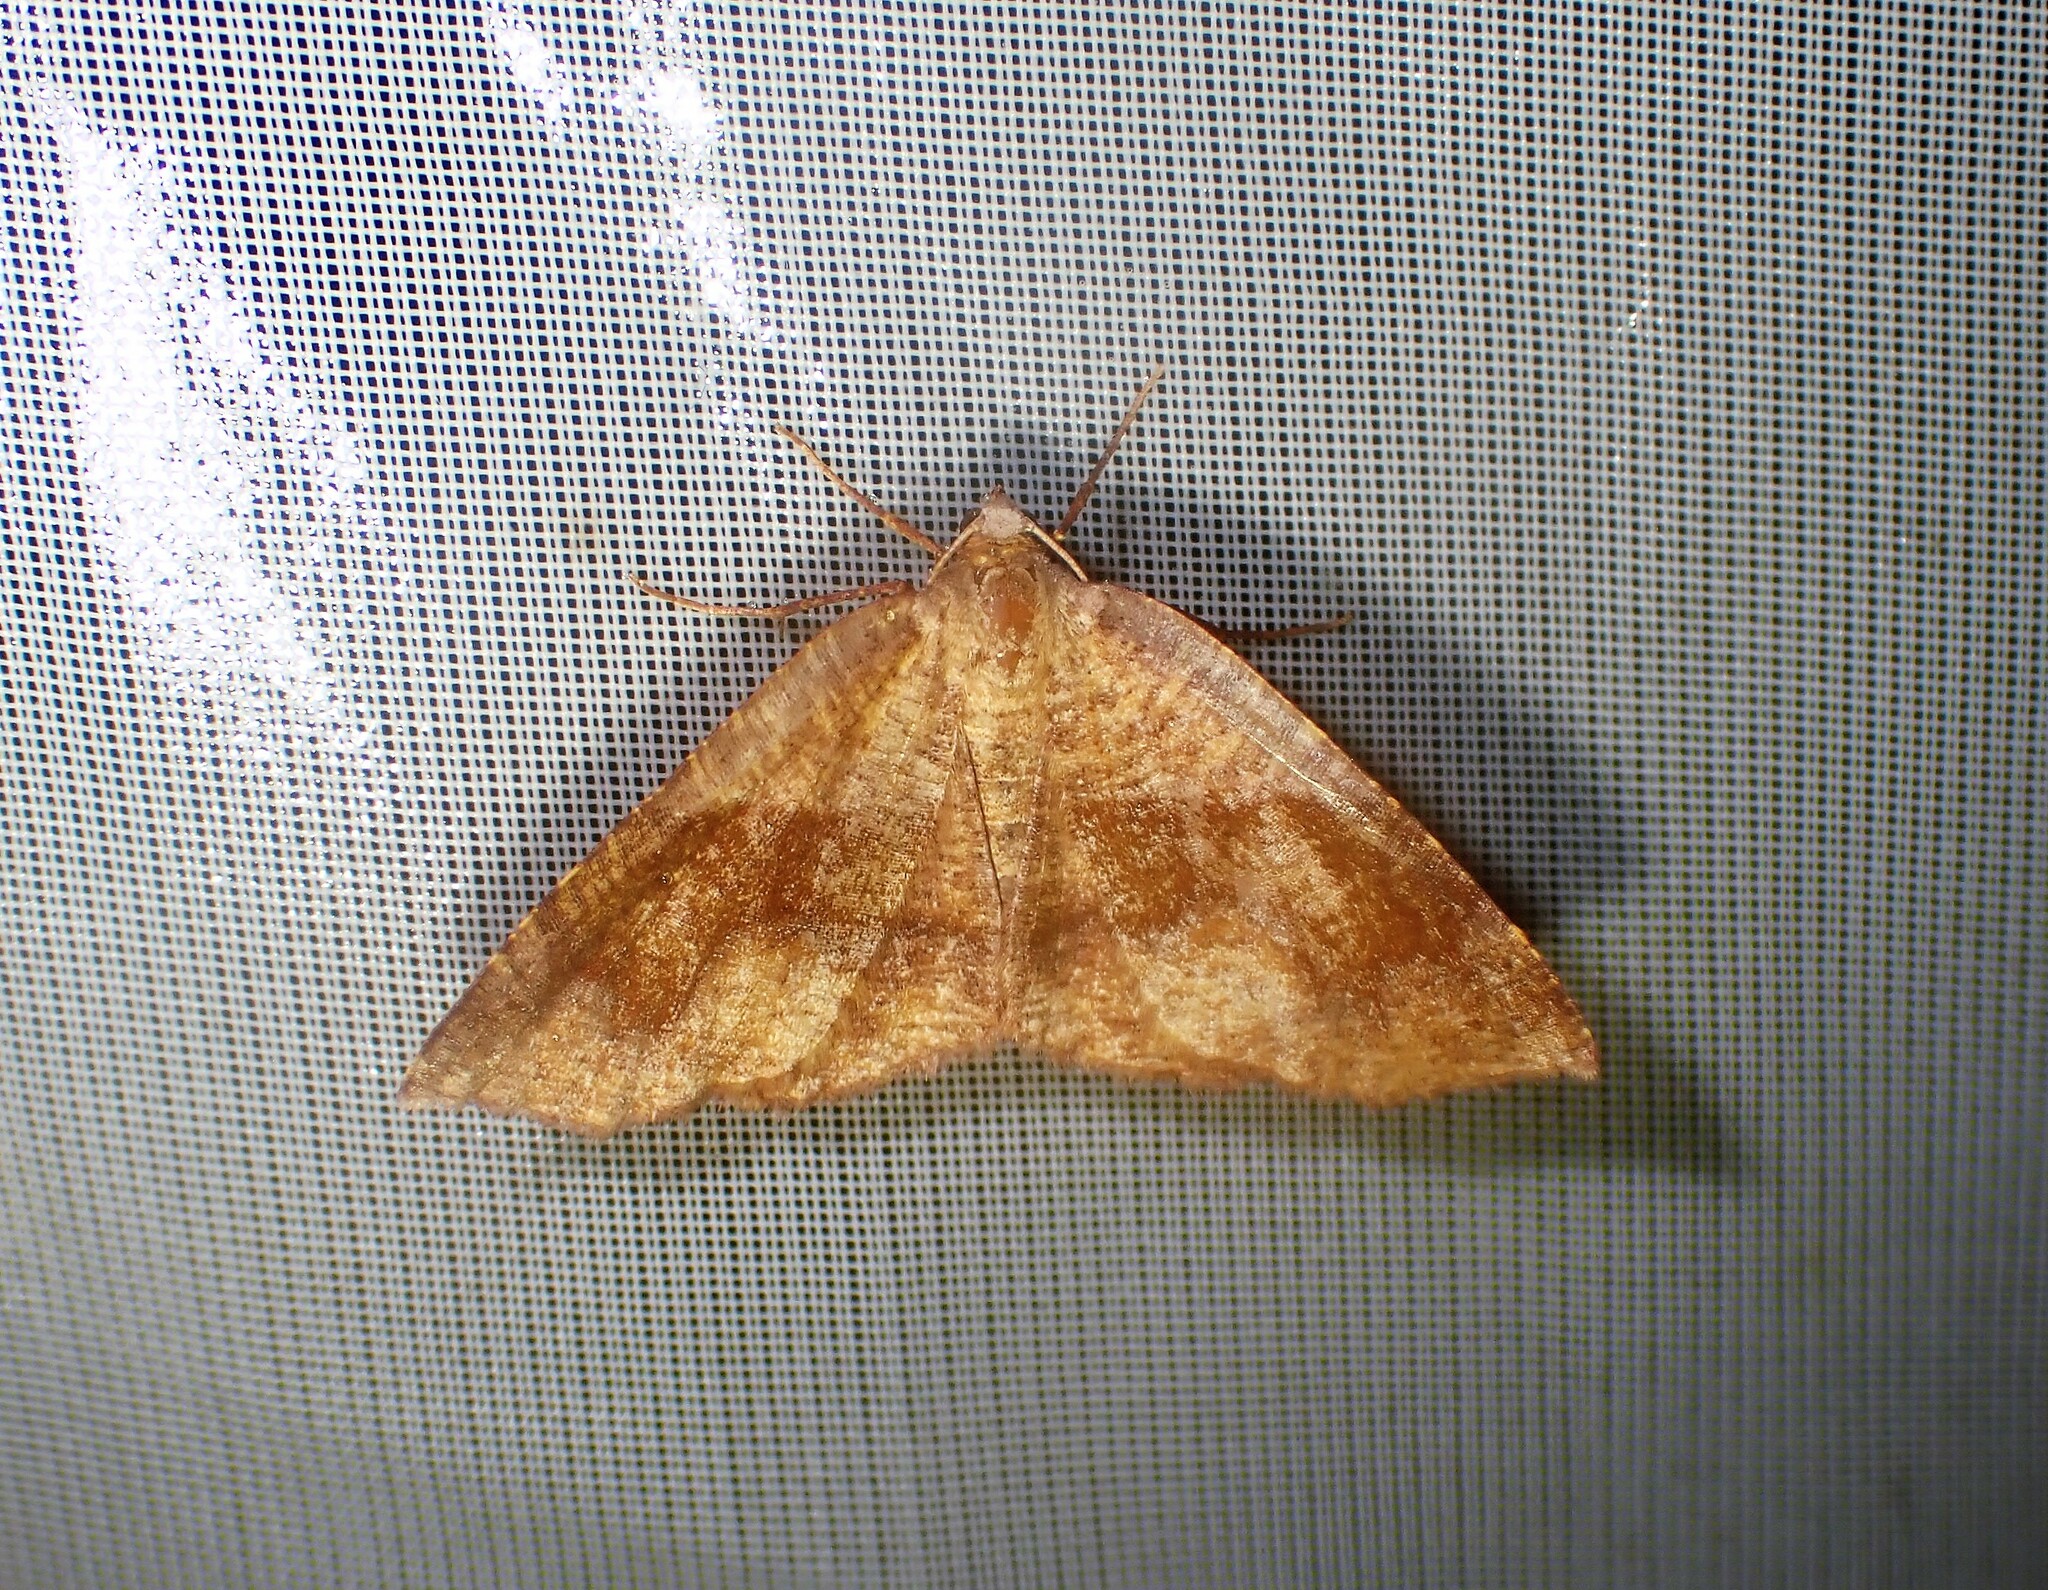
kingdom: Animalia
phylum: Arthropoda
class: Insecta
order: Lepidoptera
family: Geometridae
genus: Plagodis
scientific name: Plagodis pulveraria
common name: Barred umber
